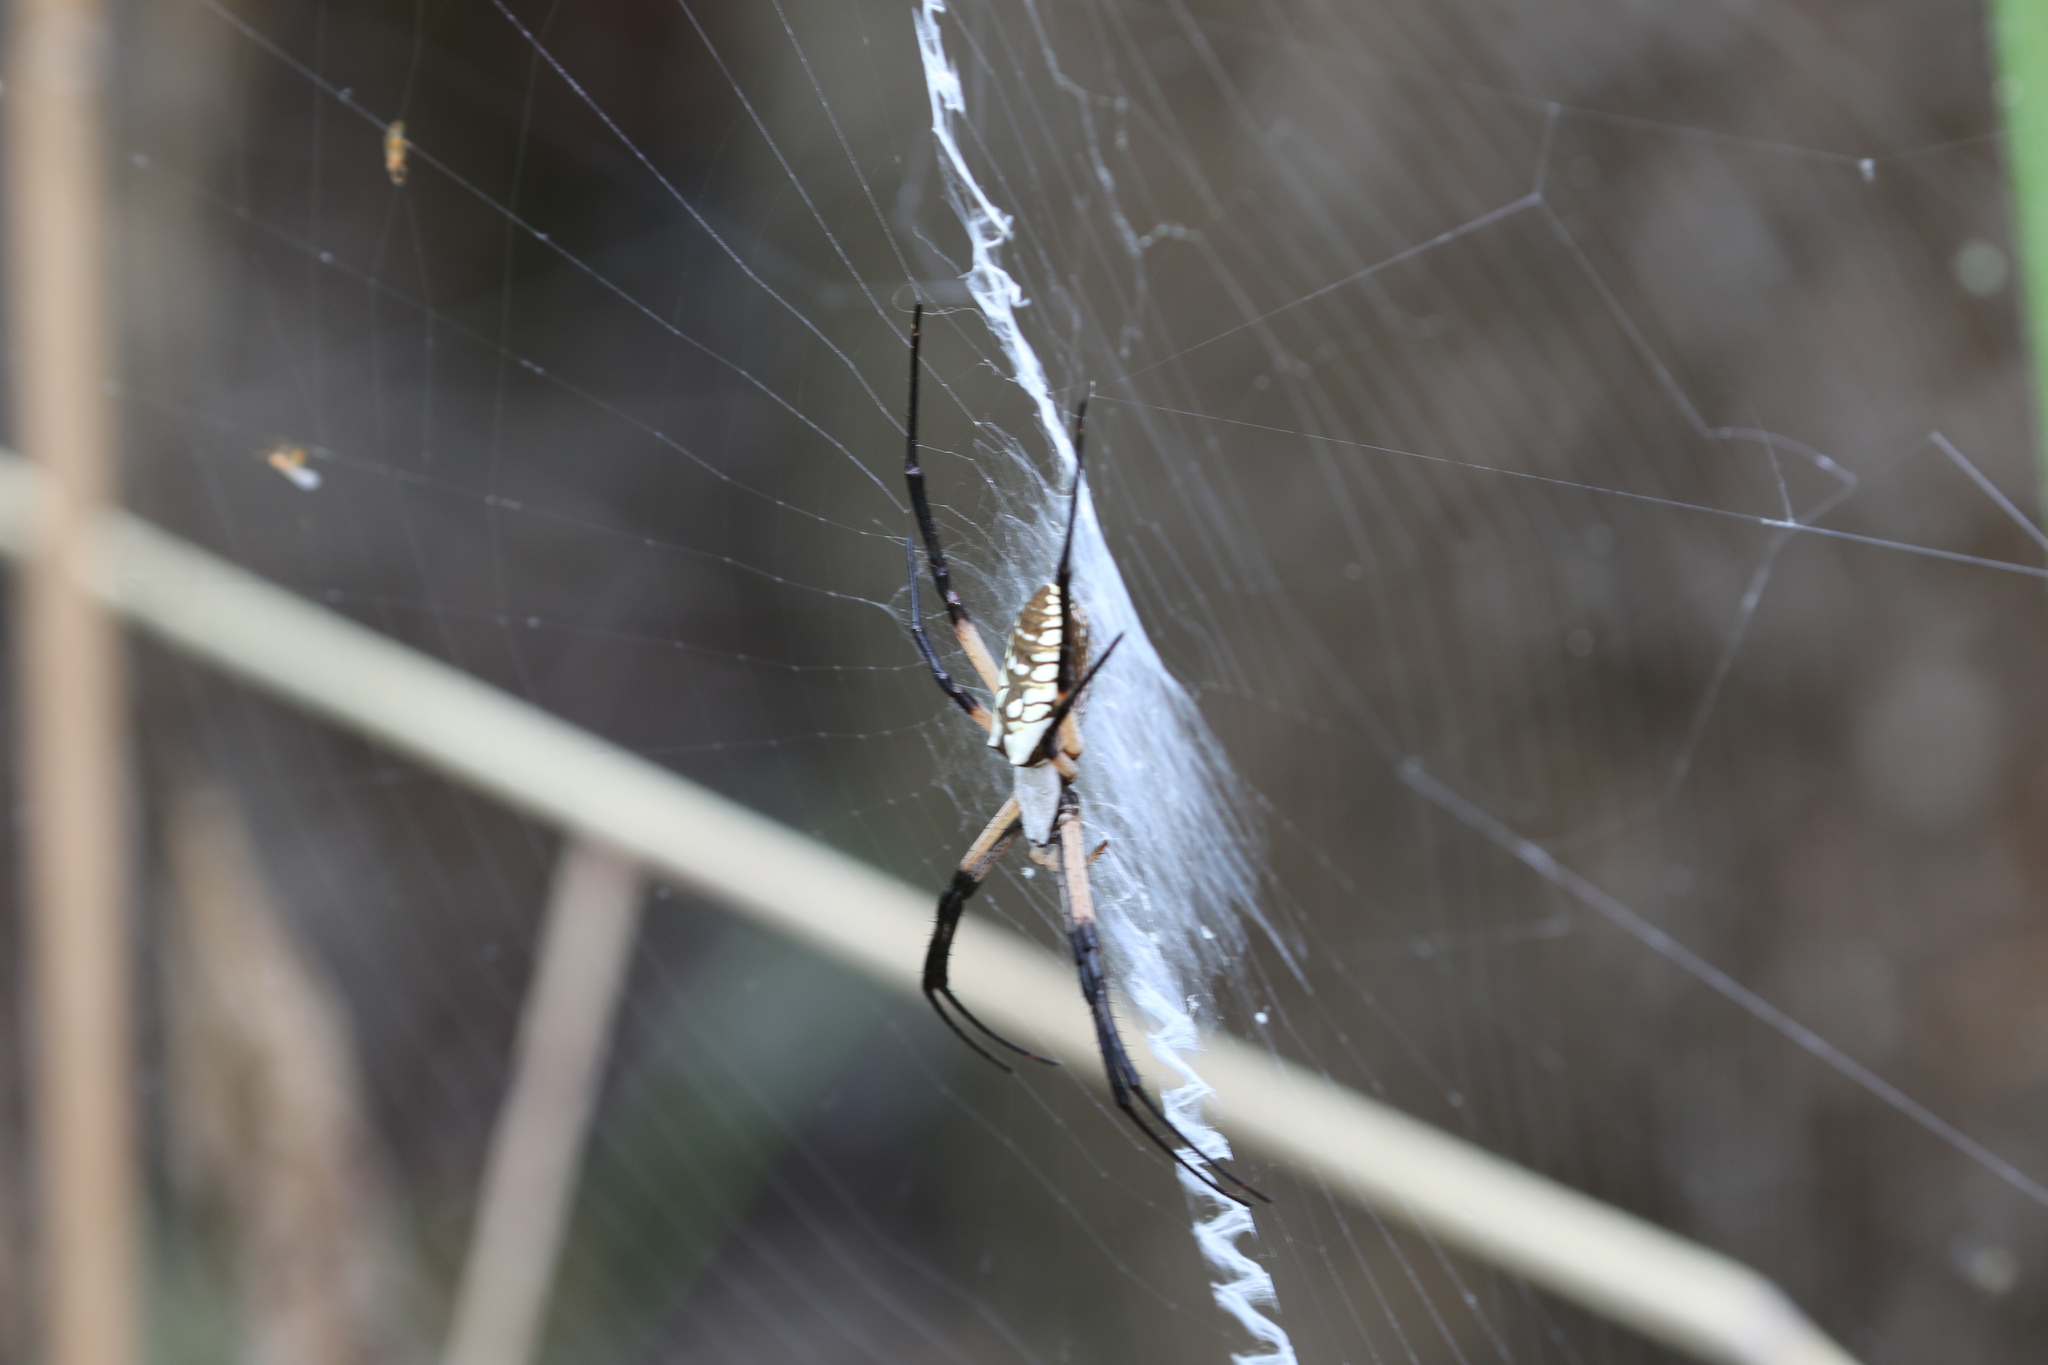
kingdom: Animalia
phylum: Arthropoda
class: Arachnida
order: Araneae
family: Araneidae
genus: Argiope
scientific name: Argiope aurantia
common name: Orb weavers
